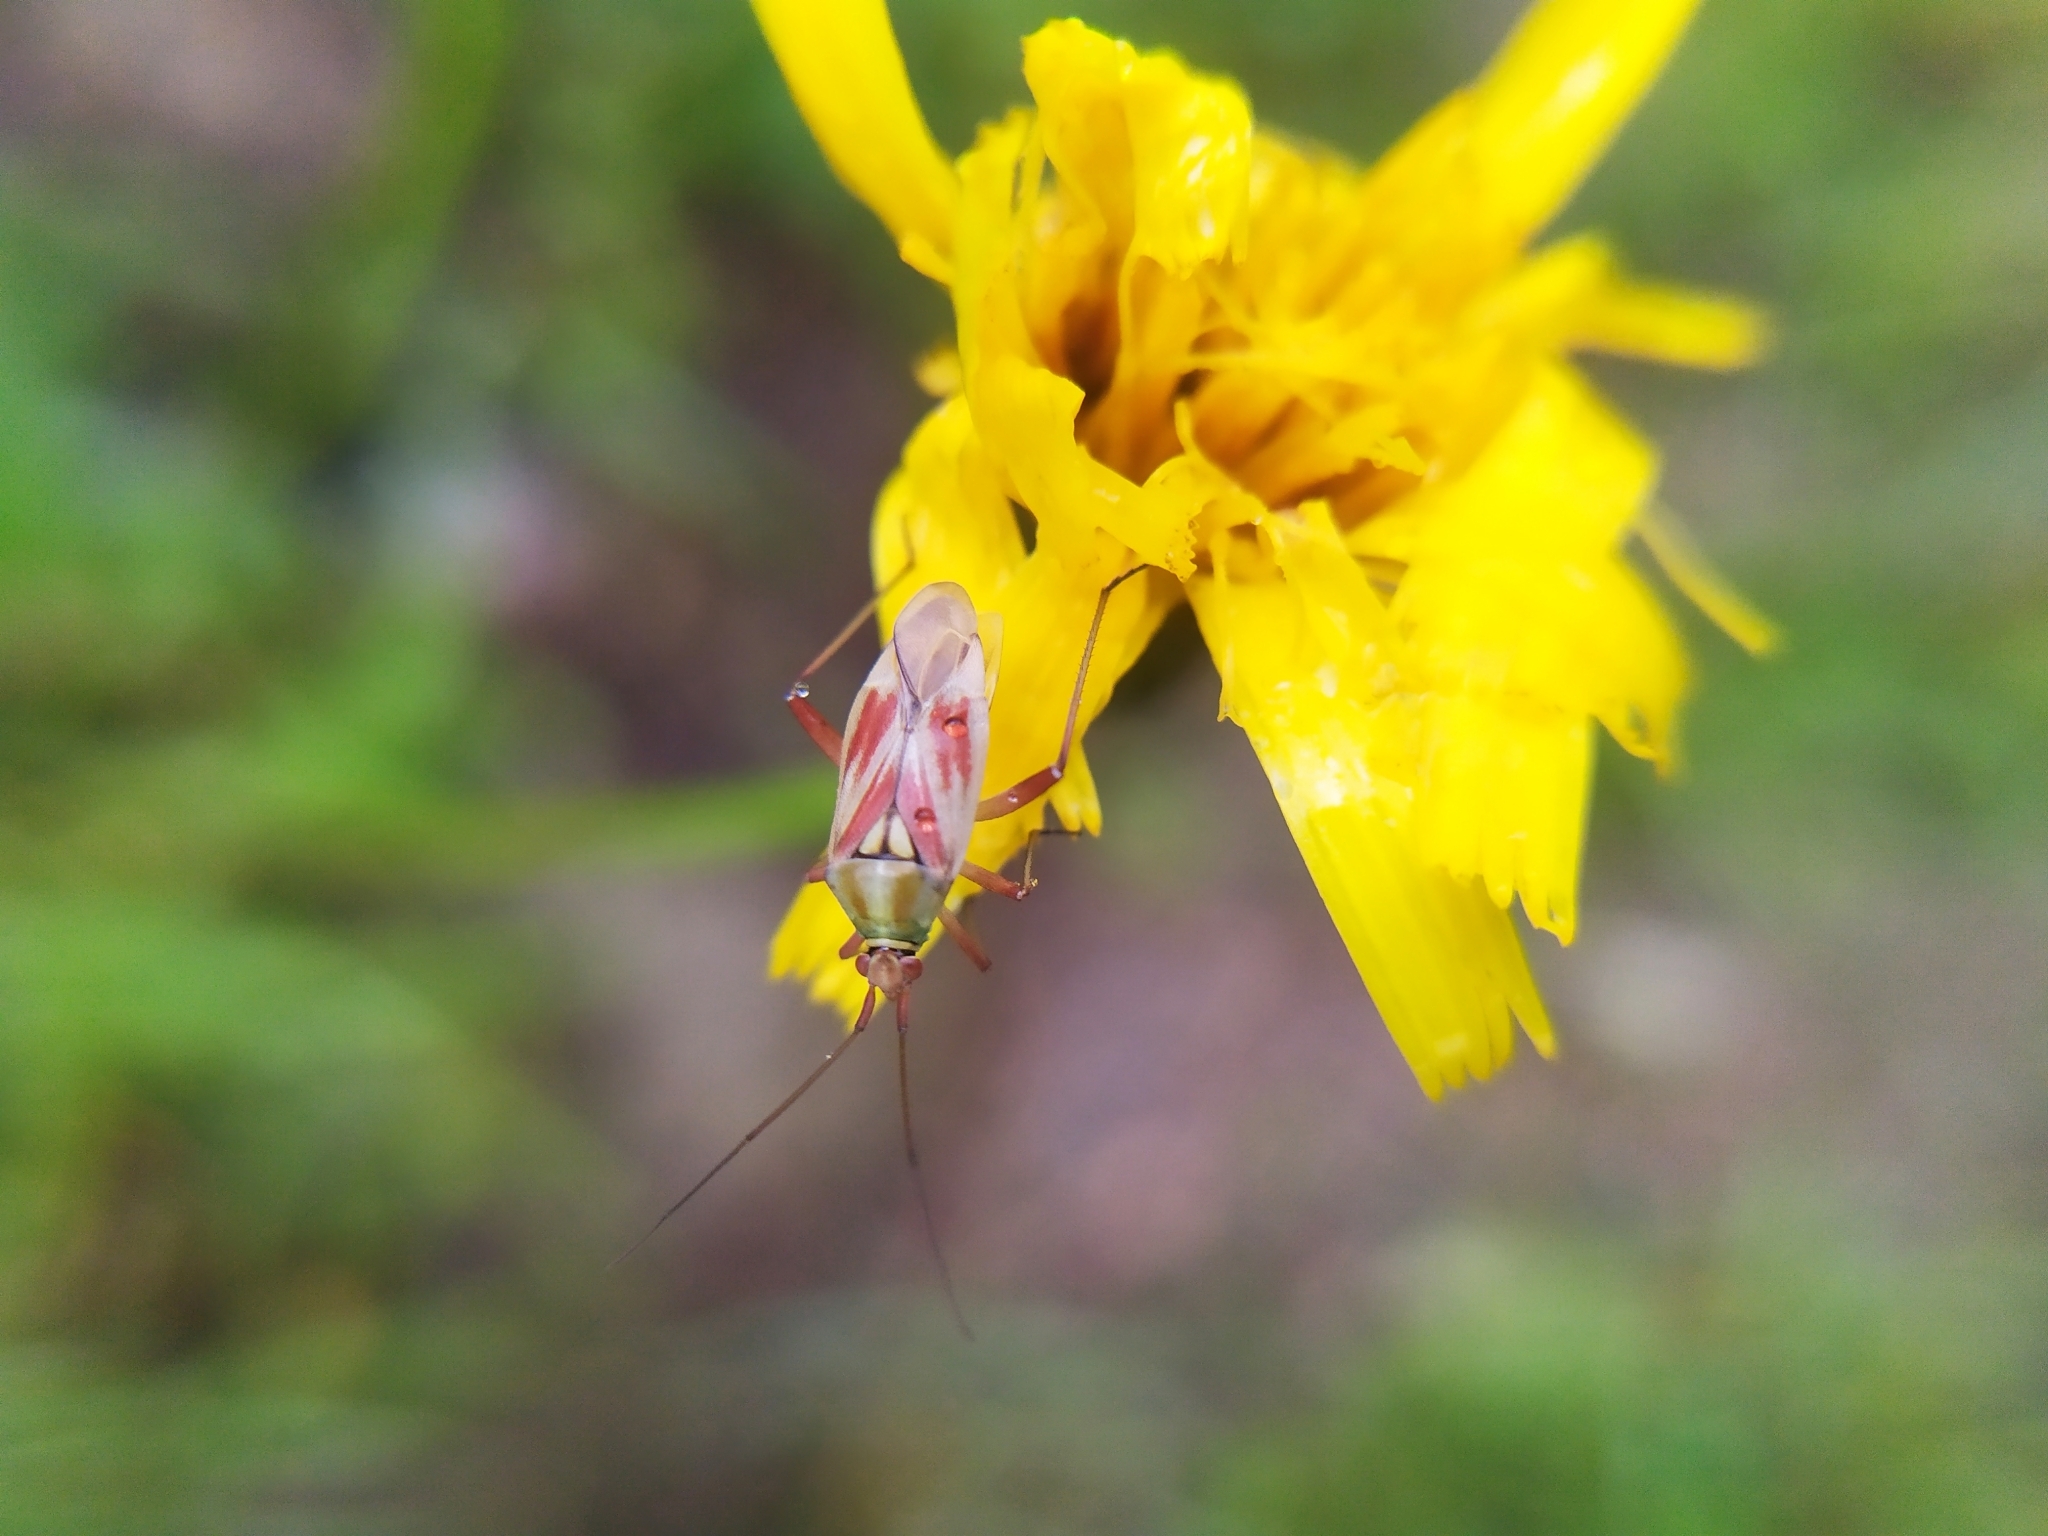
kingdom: Animalia
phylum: Arthropoda
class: Insecta
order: Hemiptera
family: Miridae
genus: Calocoris
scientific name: Calocoris roseomaculatus
